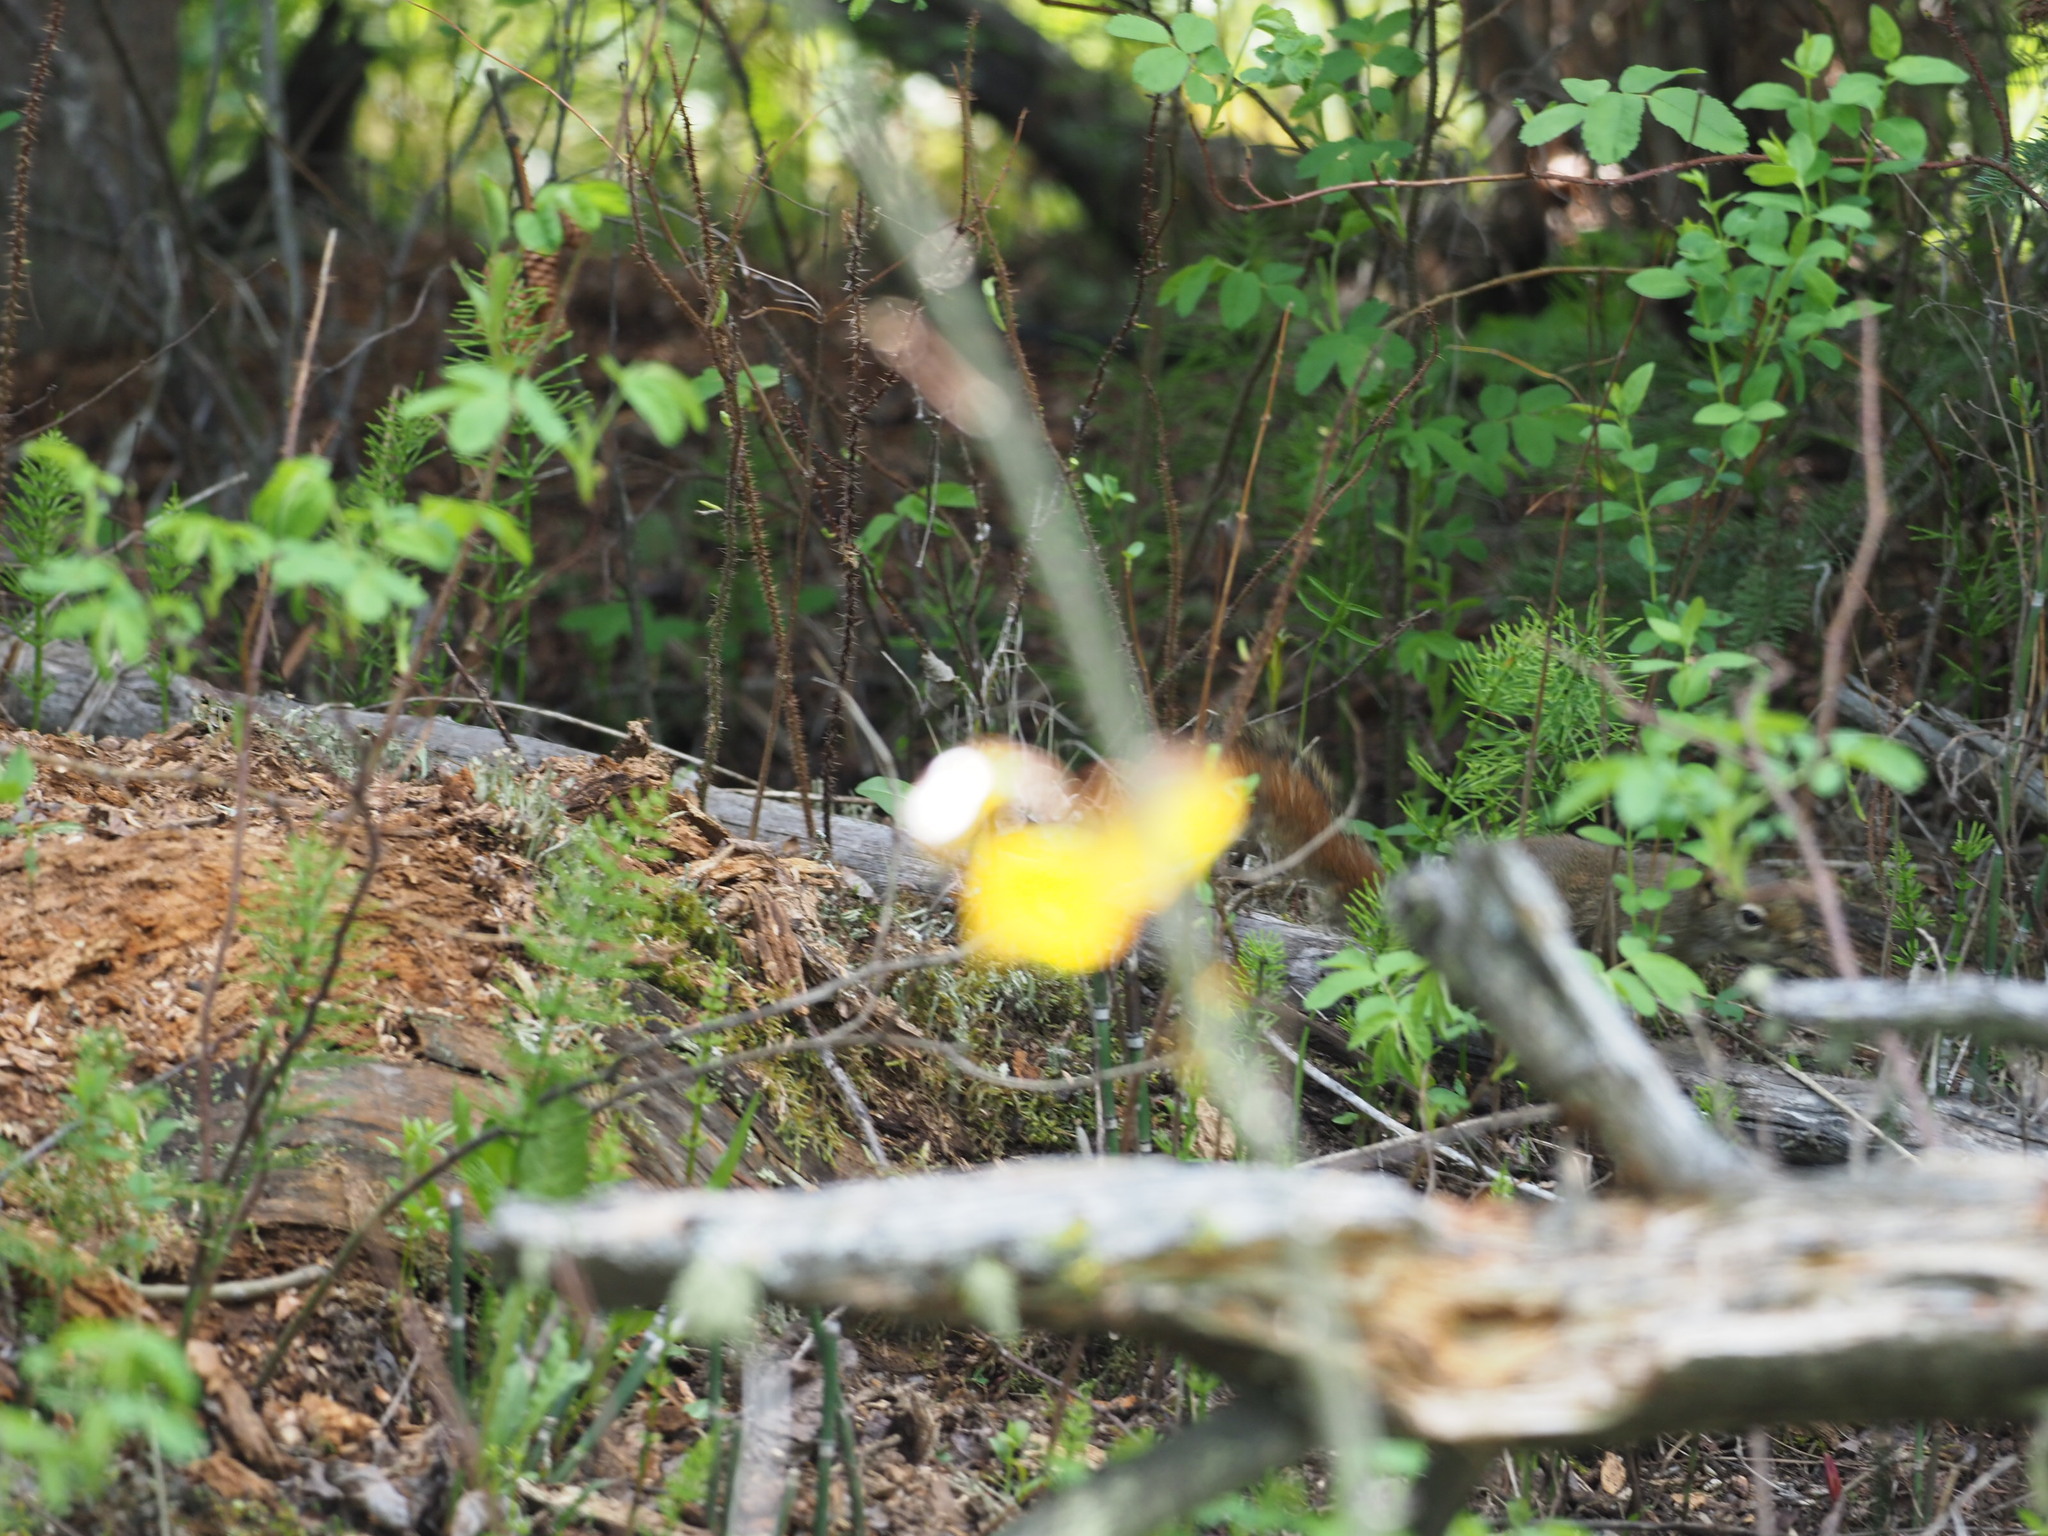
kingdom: Animalia
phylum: Chordata
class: Mammalia
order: Rodentia
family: Sciuridae
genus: Tamiasciurus
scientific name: Tamiasciurus hudsonicus
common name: Red squirrel
